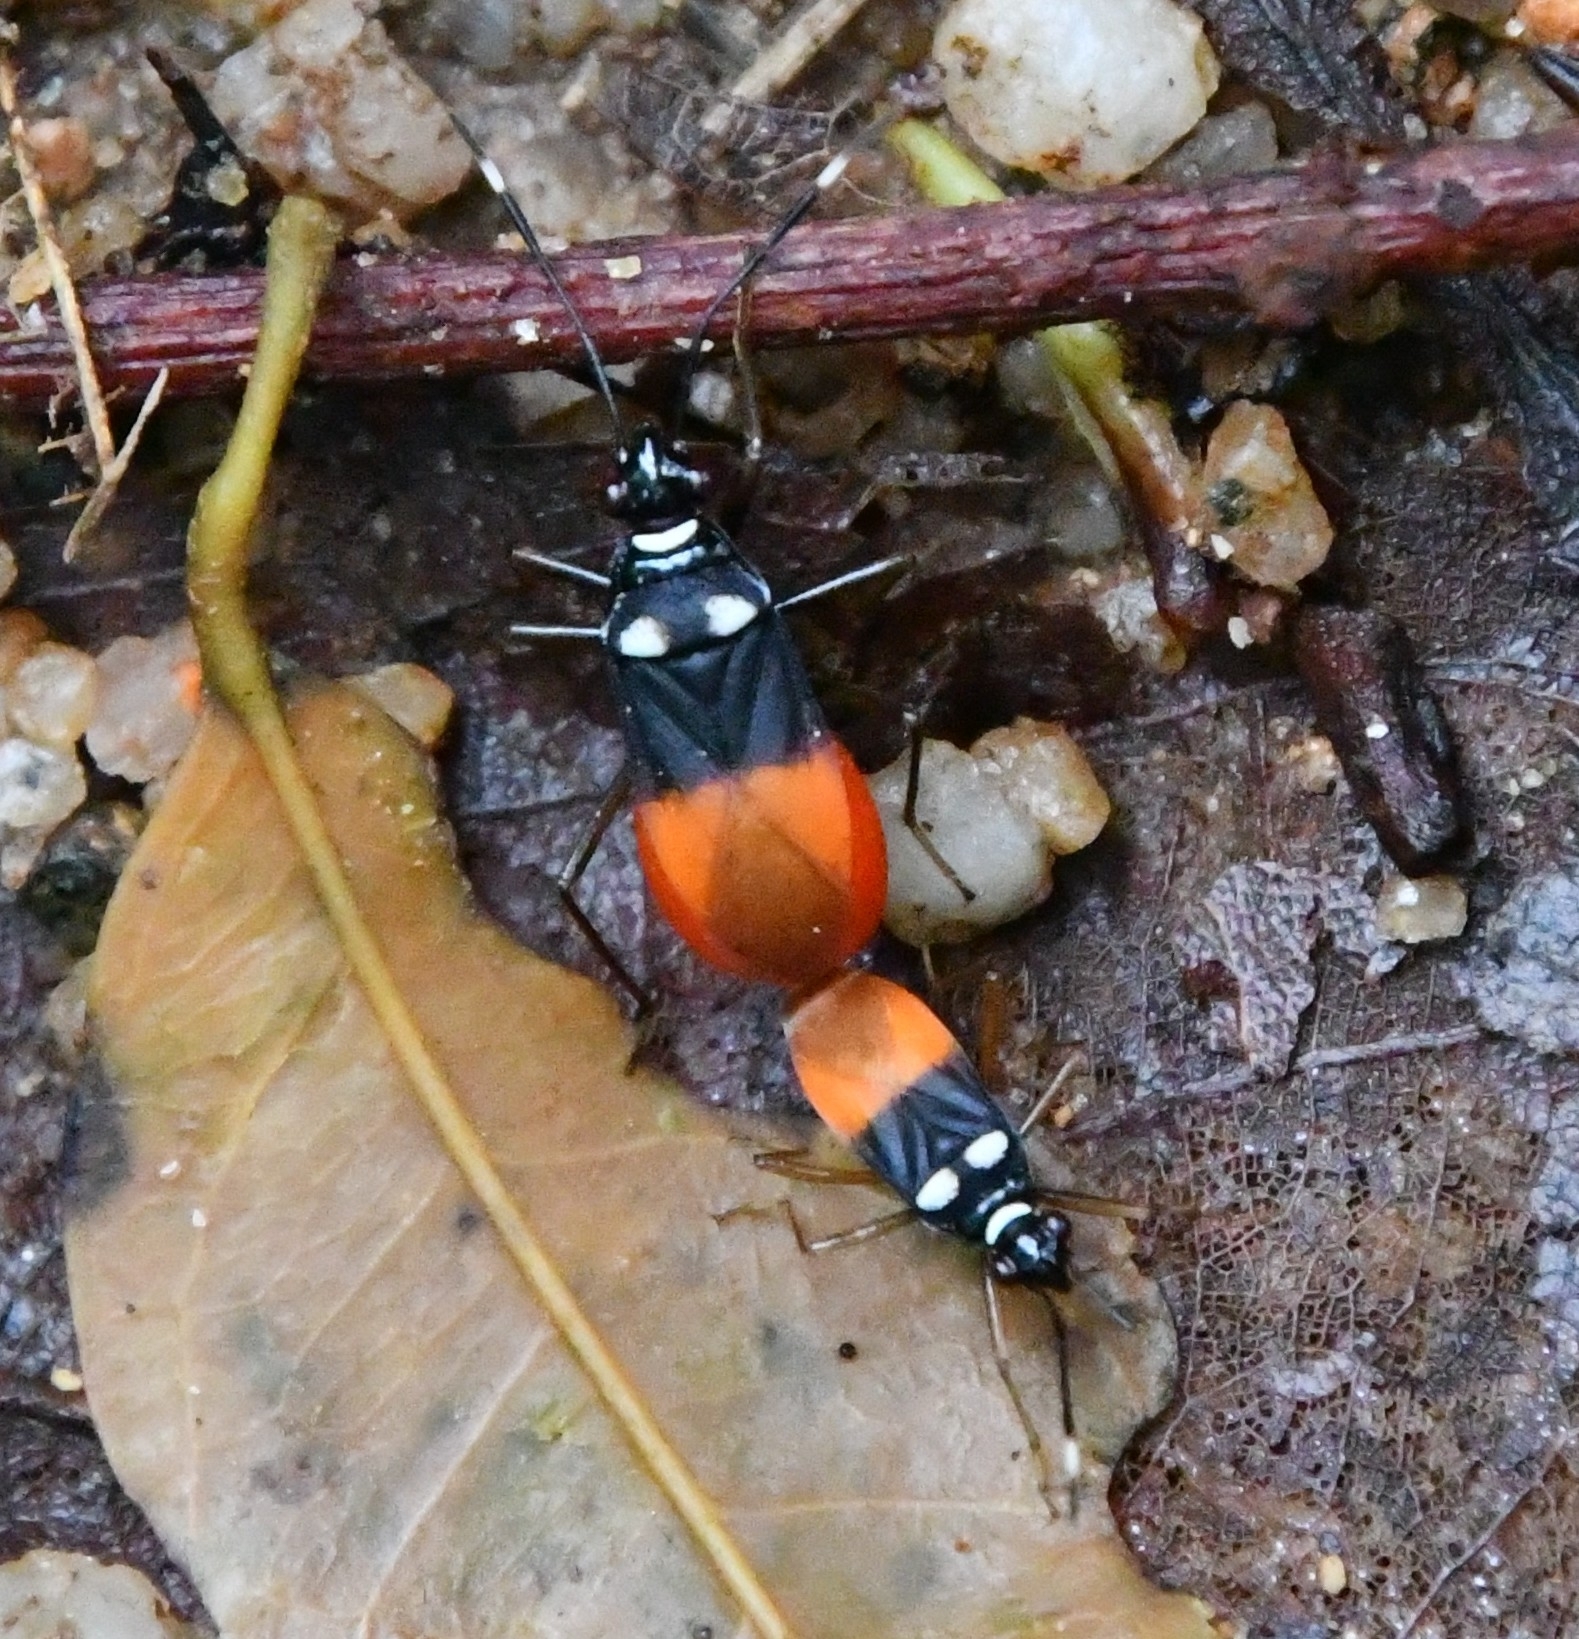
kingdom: Animalia
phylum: Arthropoda
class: Insecta
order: Hemiptera
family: Pyrrhocoridae
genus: Dindymus
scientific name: Dindymus
